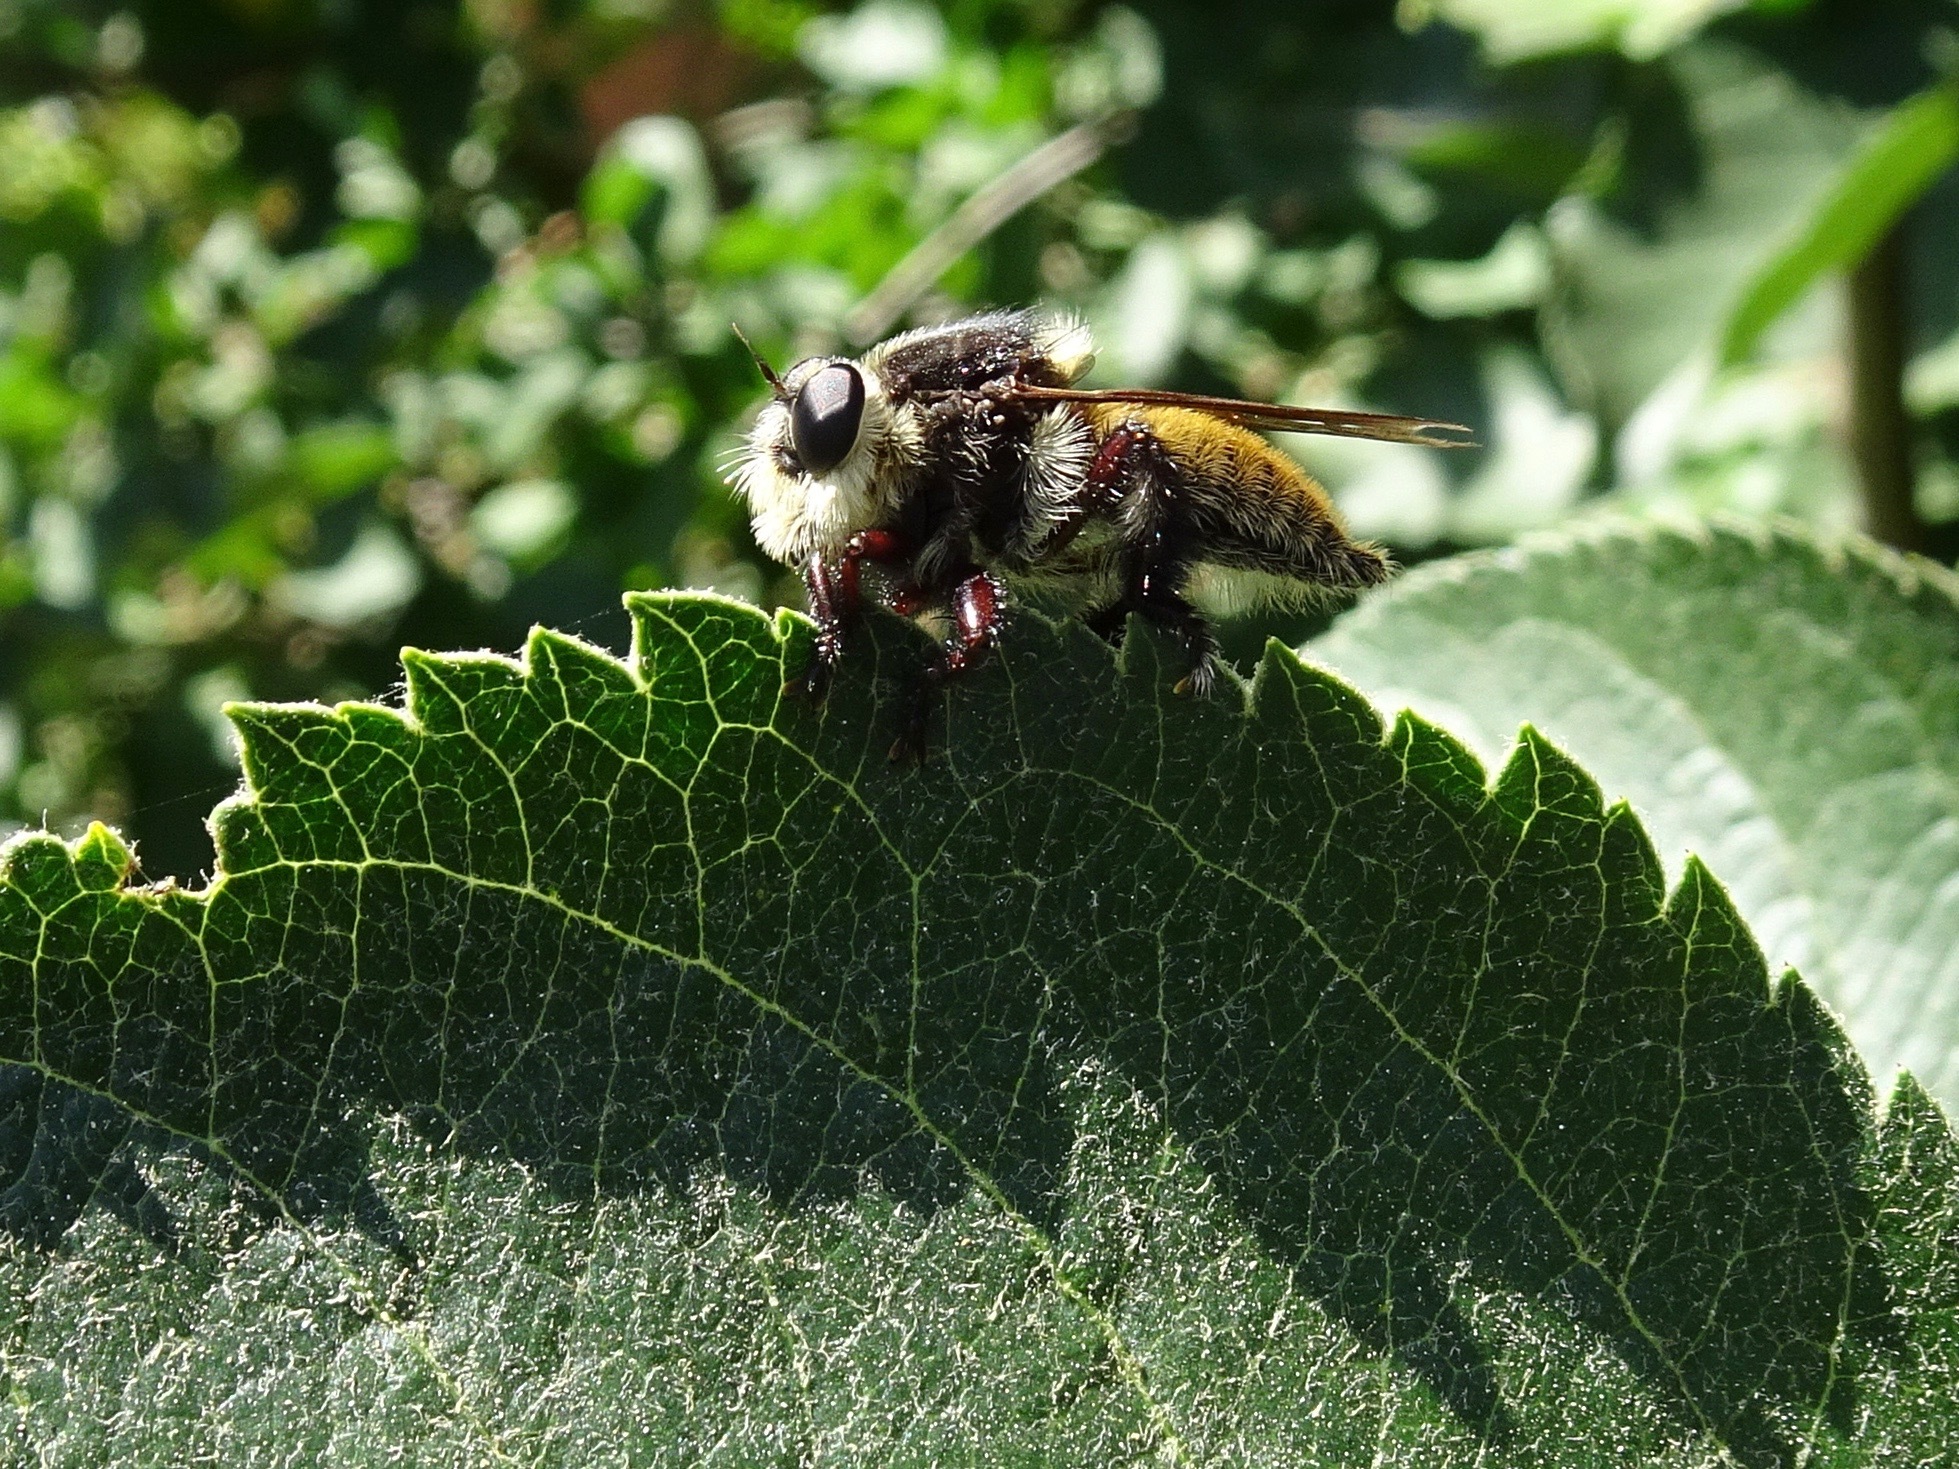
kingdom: Animalia
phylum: Arthropoda
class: Insecta
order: Diptera
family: Asilidae
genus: Mallophora
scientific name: Mallophora fautrix
